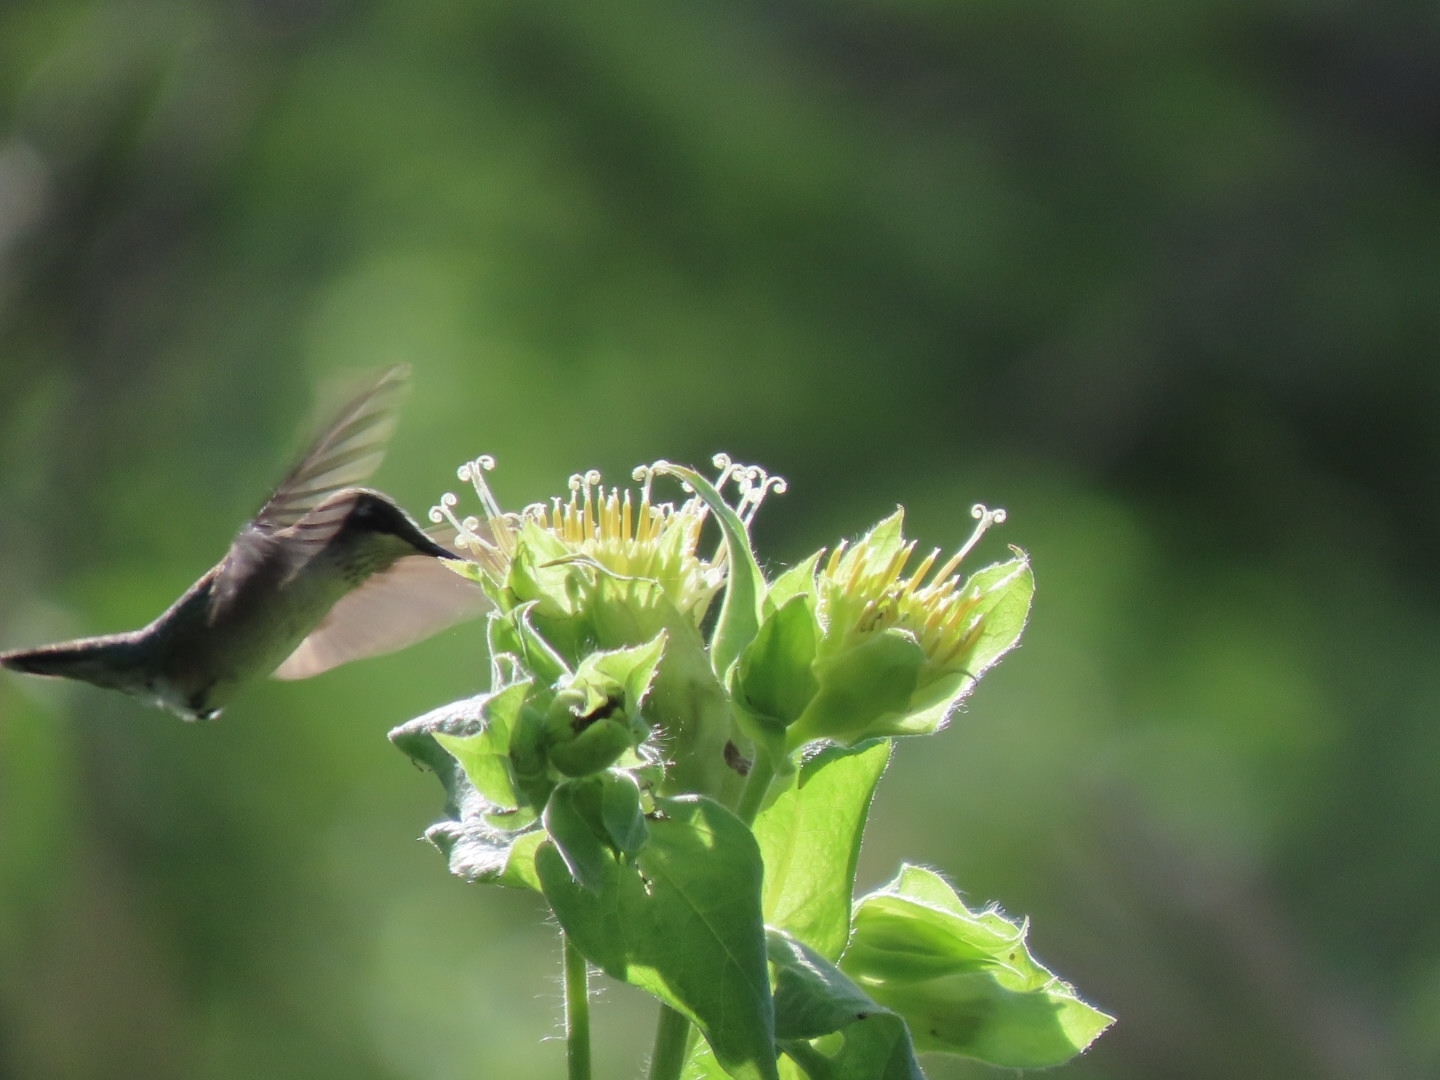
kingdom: Animalia
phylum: Chordata
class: Aves
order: Apodiformes
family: Trochilidae
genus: Archilochus
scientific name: Archilochus colubris
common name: Ruby-throated hummingbird
